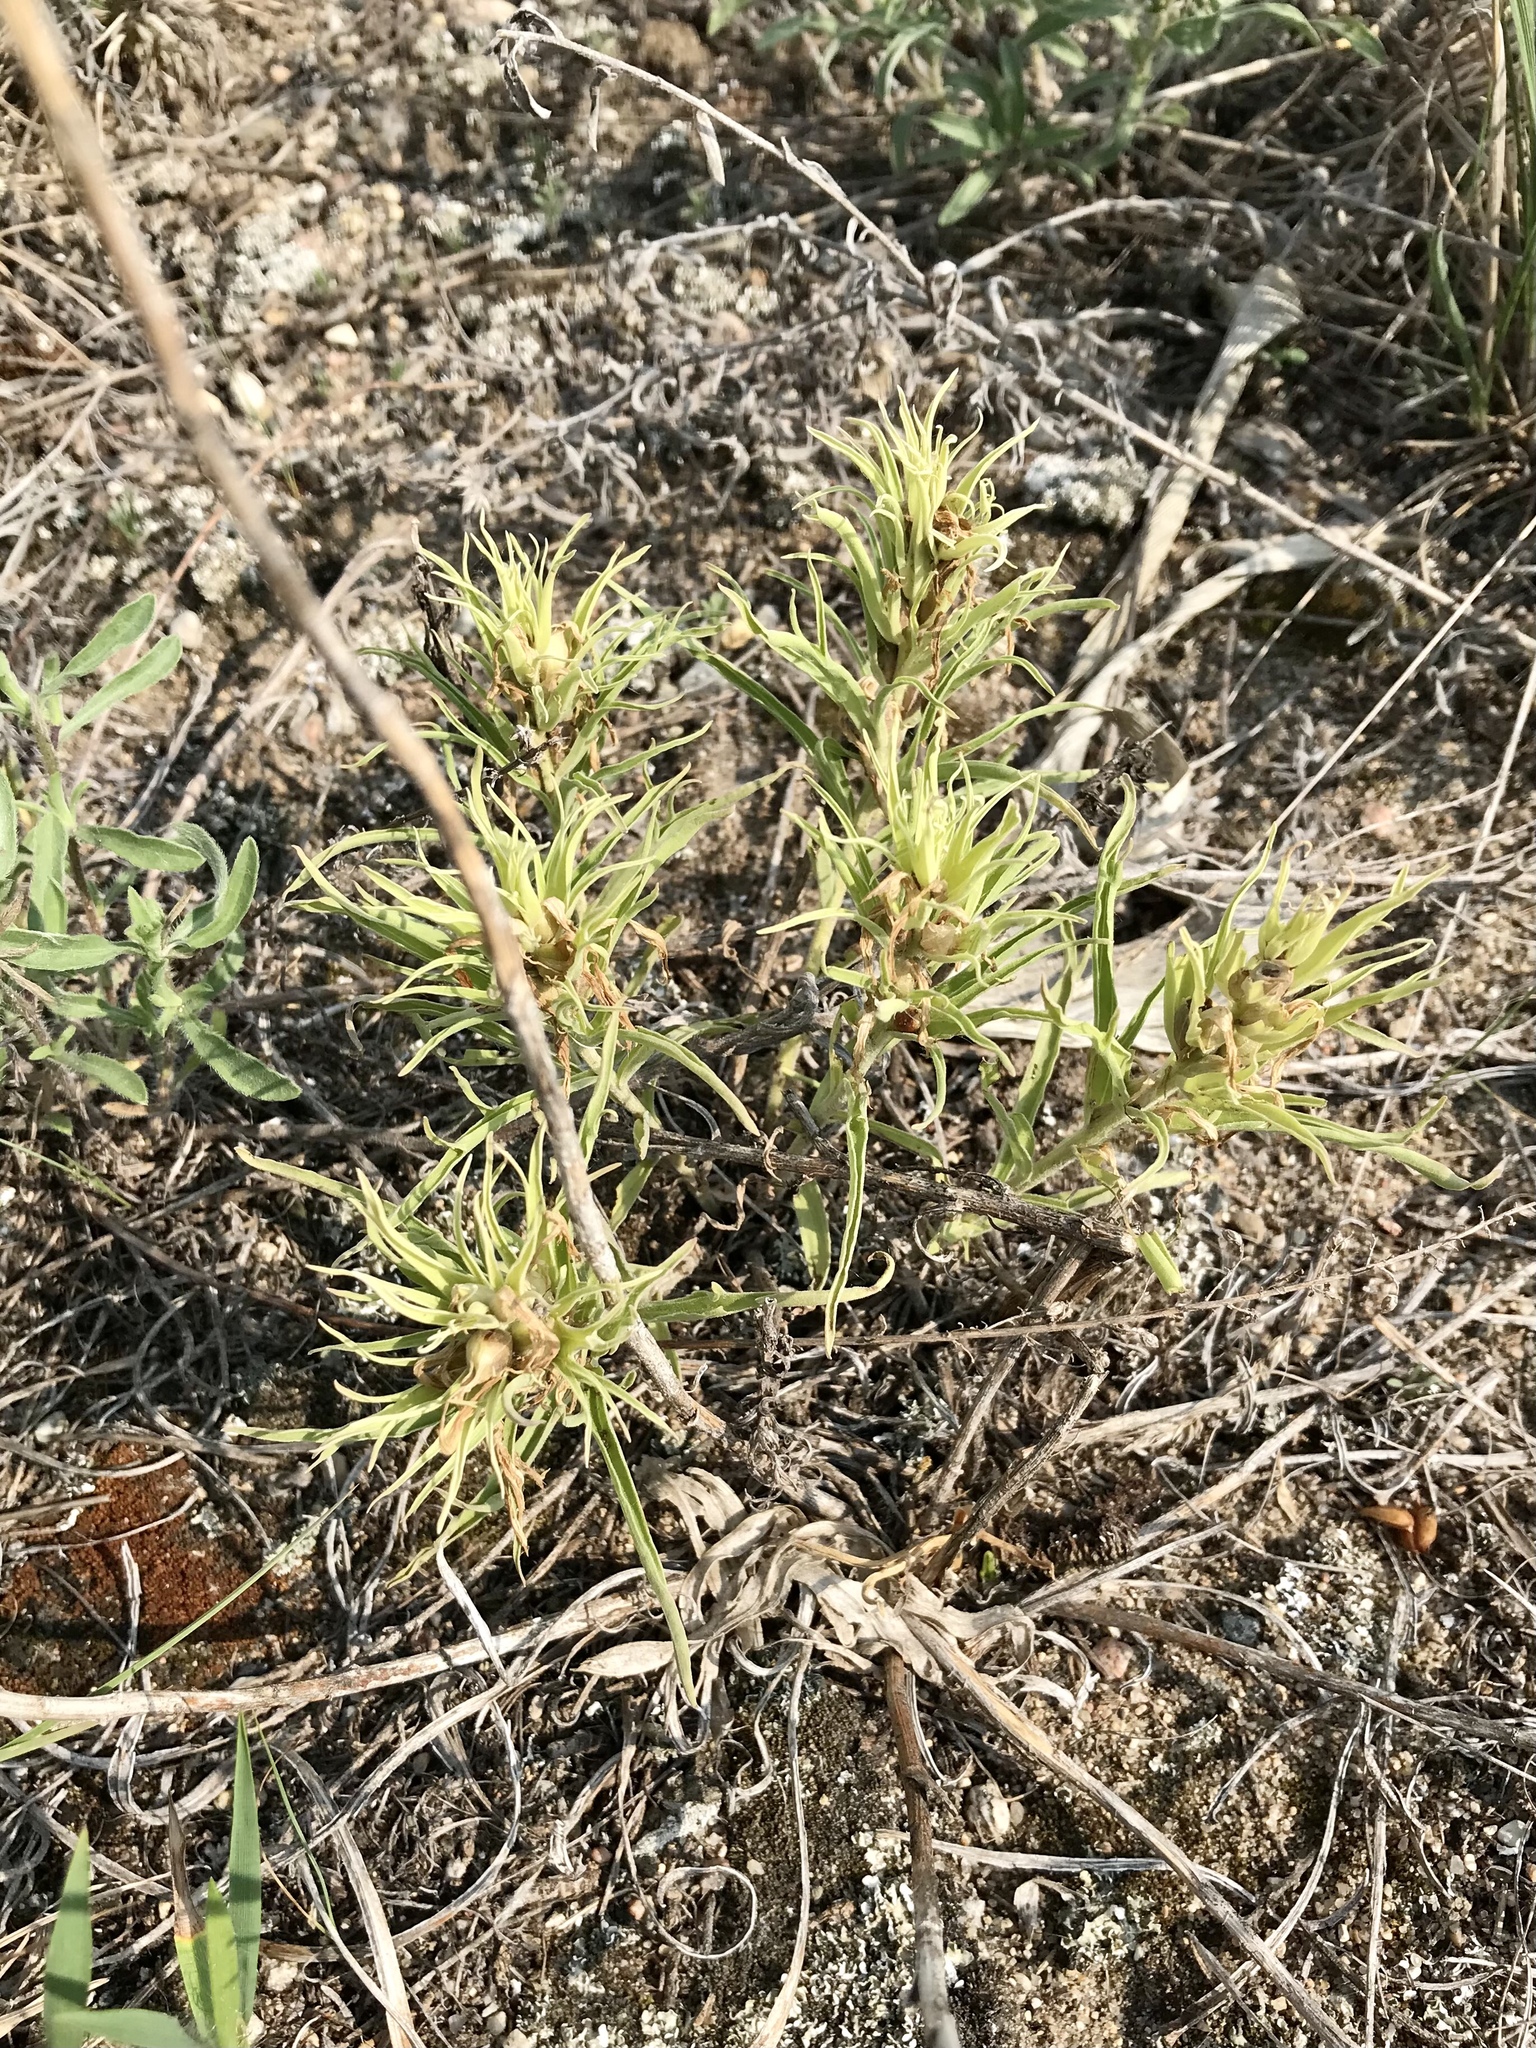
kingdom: Plantae
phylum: Tracheophyta
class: Magnoliopsida
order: Lamiales
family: Orobanchaceae
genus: Castilleja
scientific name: Castilleja sessiliflora
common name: Downy paintbrush
